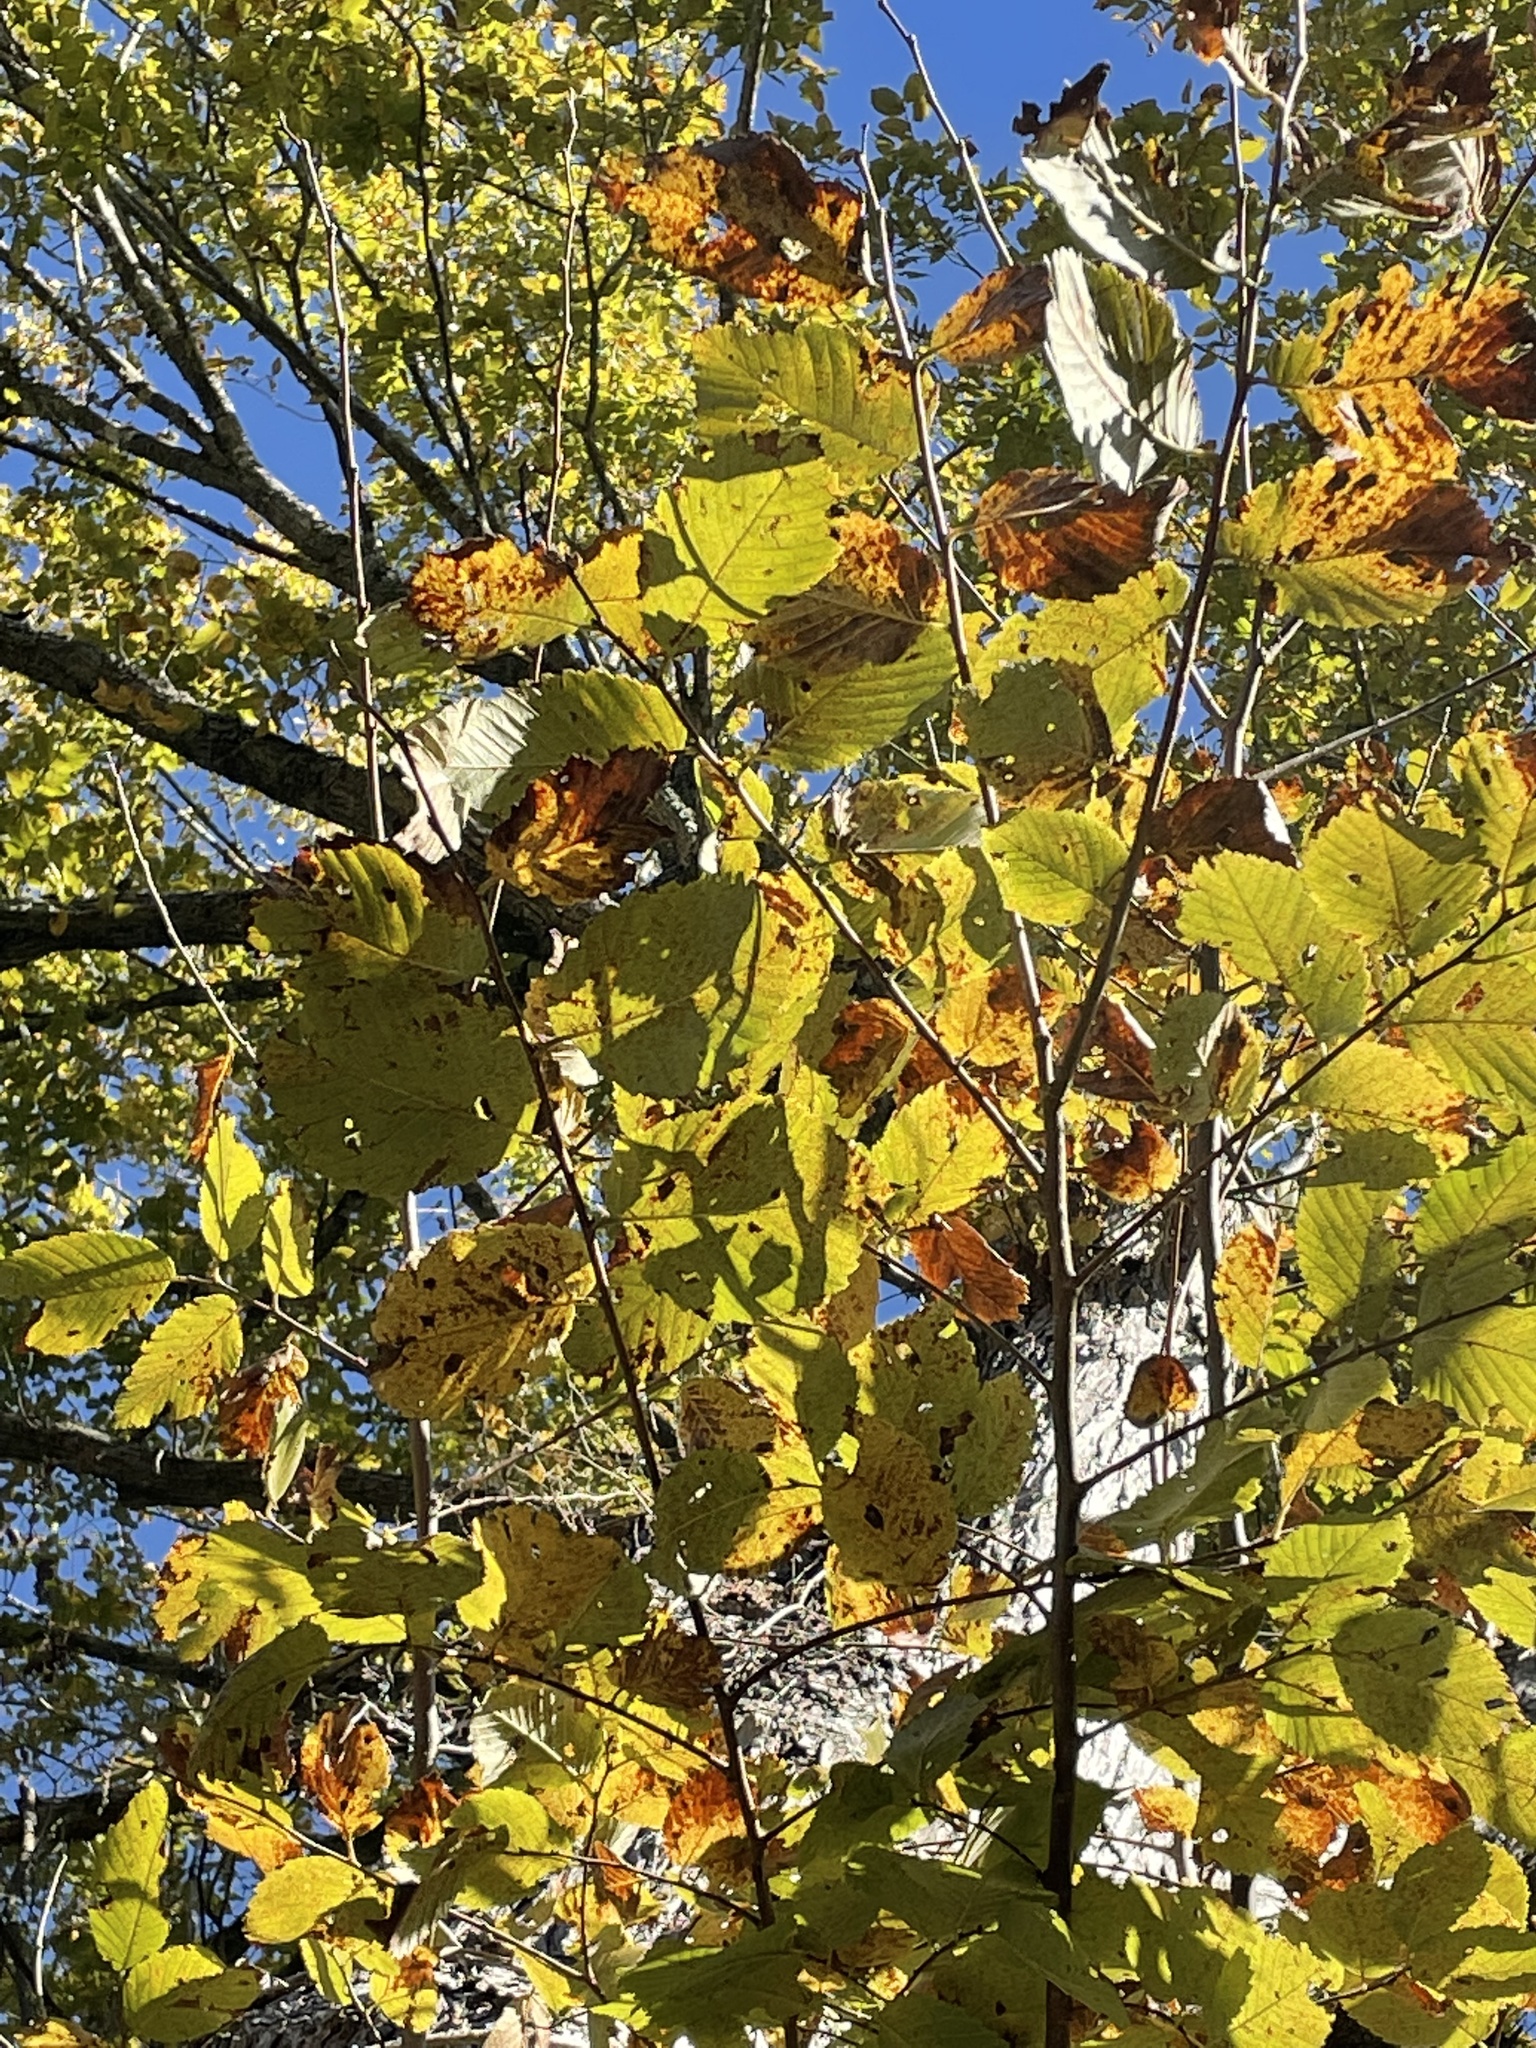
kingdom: Plantae
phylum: Tracheophyta
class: Magnoliopsida
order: Rosales
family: Ulmaceae
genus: Ulmus
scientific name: Ulmus americana
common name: American elm
